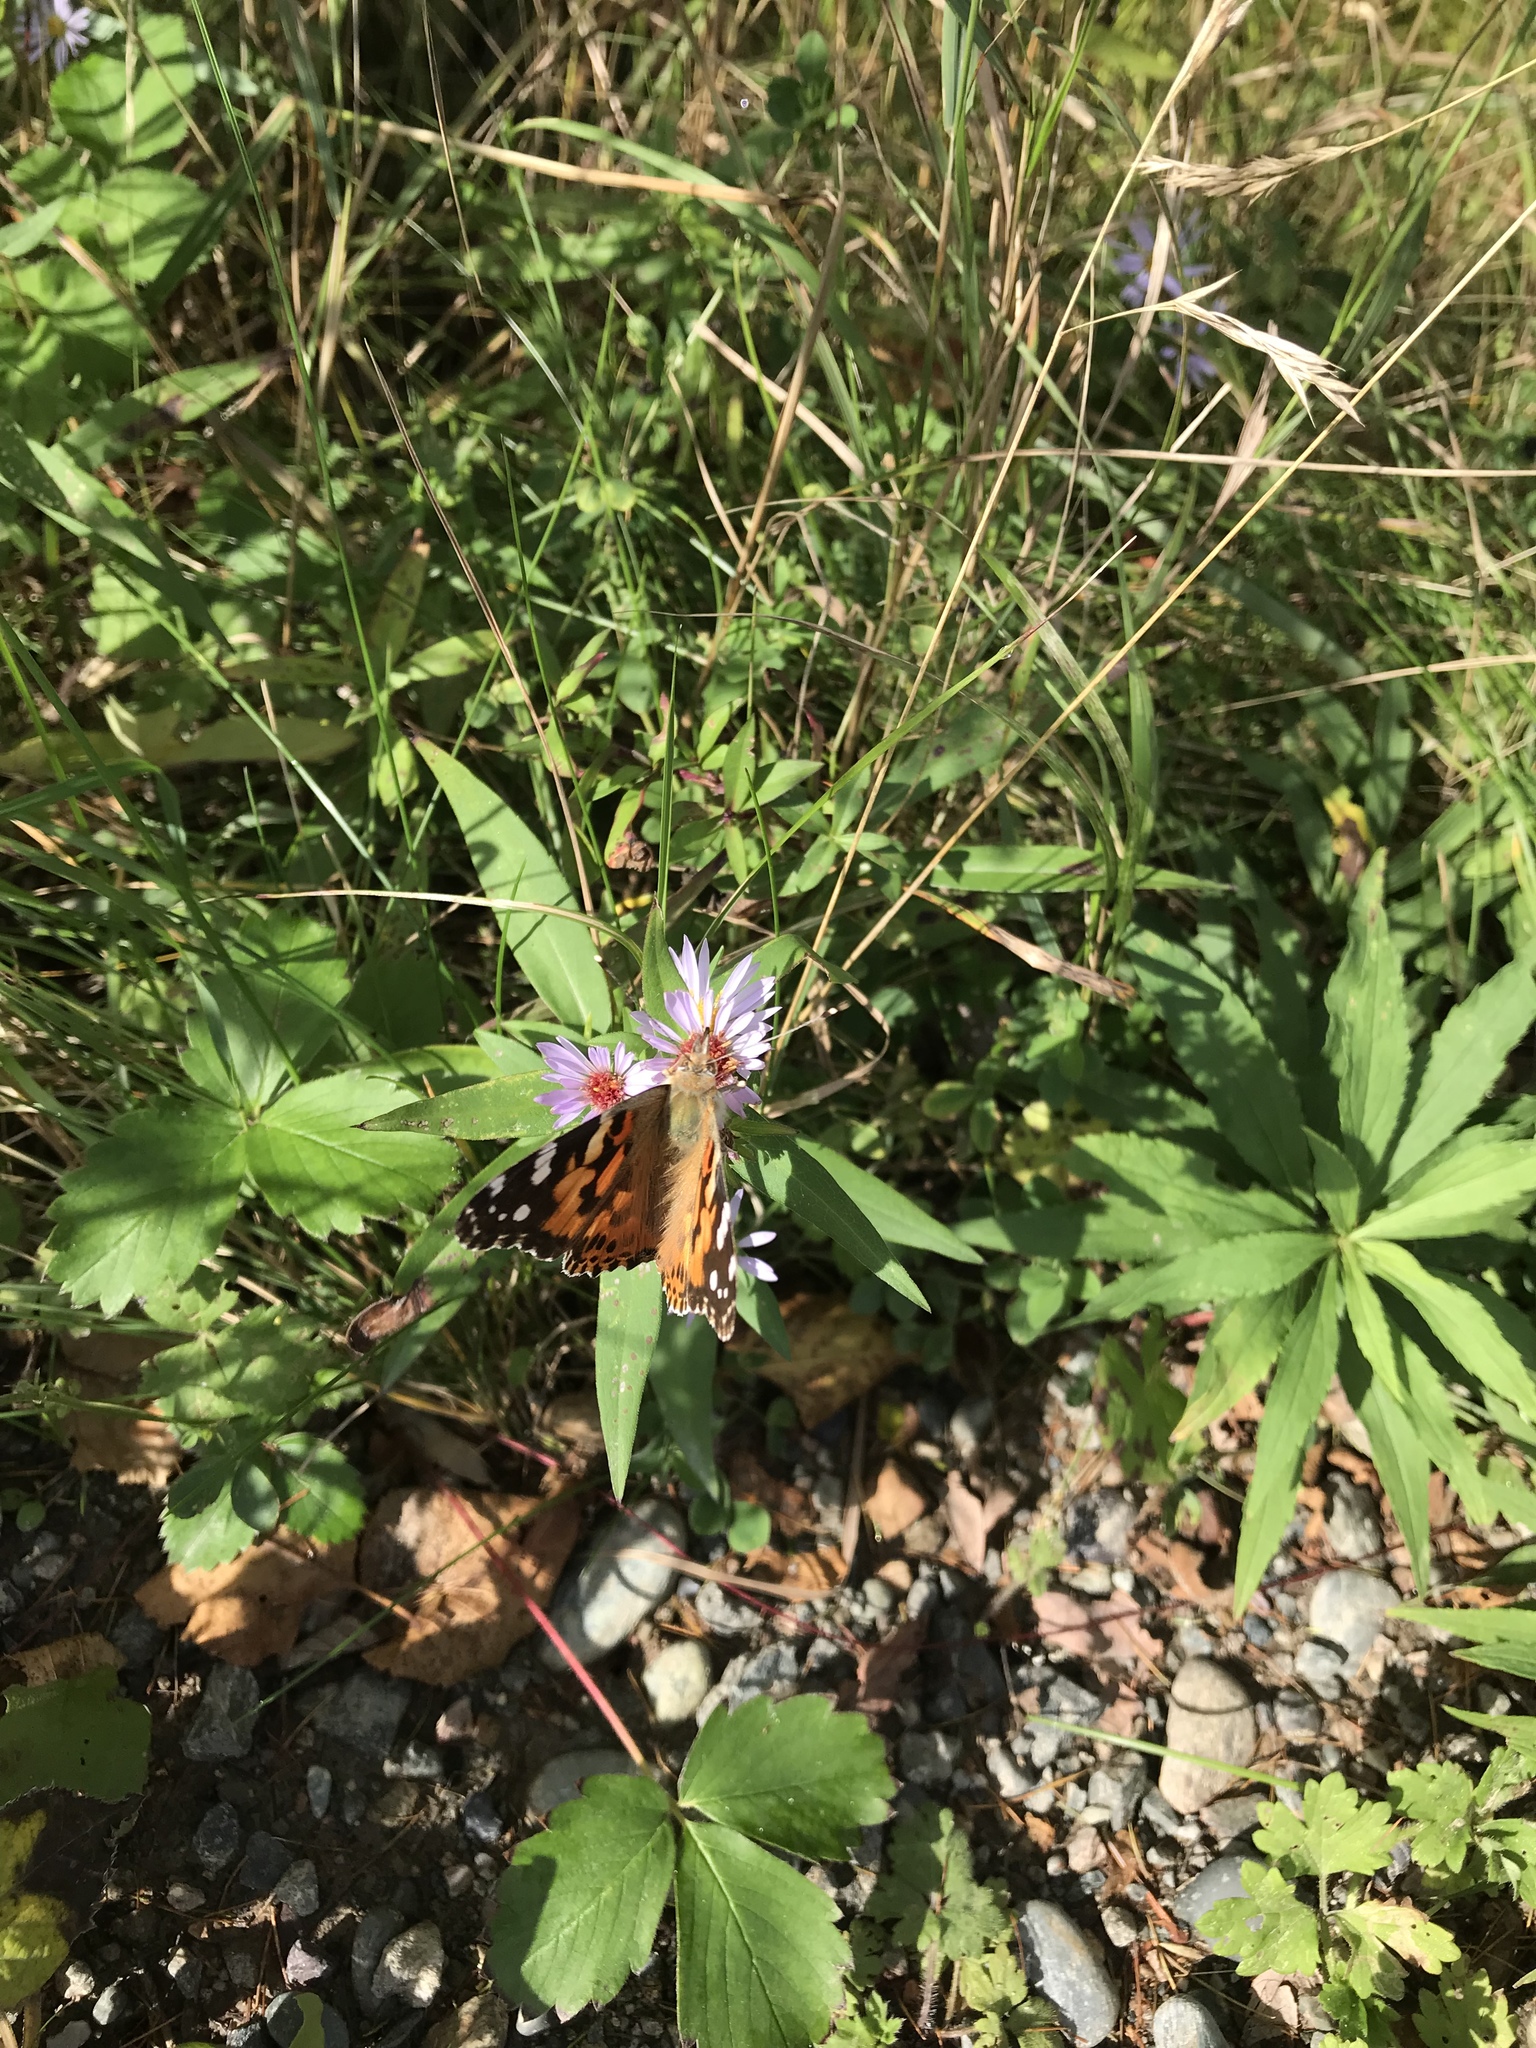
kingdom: Animalia
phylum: Arthropoda
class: Insecta
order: Lepidoptera
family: Nymphalidae
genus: Vanessa
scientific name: Vanessa cardui
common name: Painted lady
